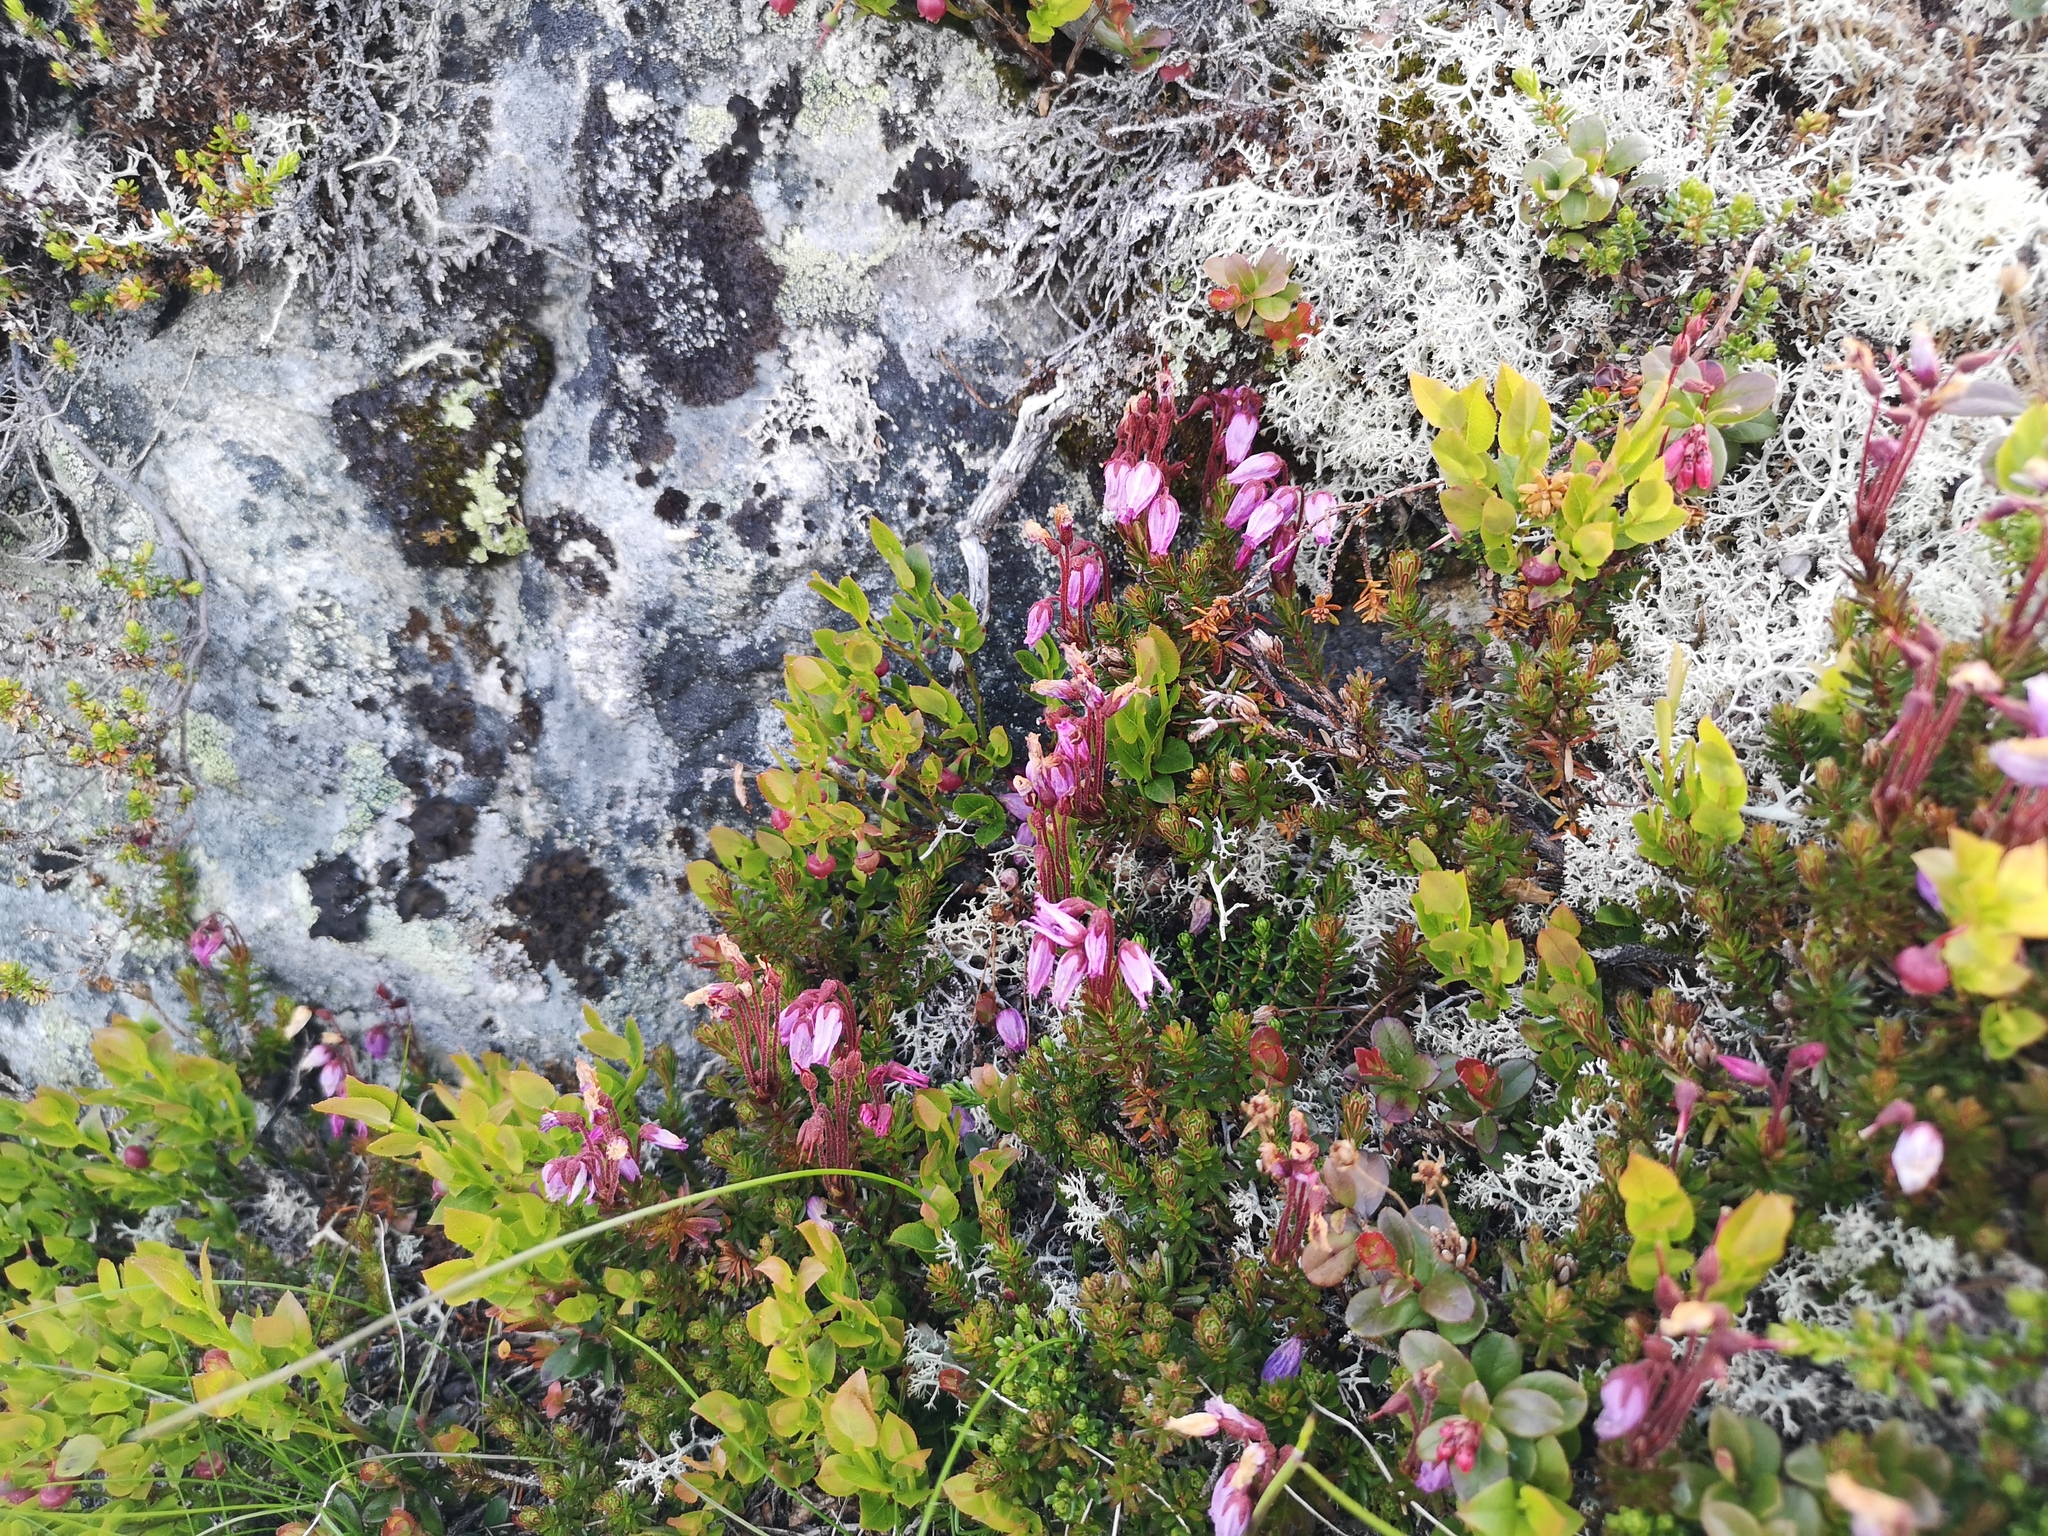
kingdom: Plantae
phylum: Tracheophyta
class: Magnoliopsida
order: Ericales
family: Ericaceae
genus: Phyllodoce
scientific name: Phyllodoce caerulea
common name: Blue heath
